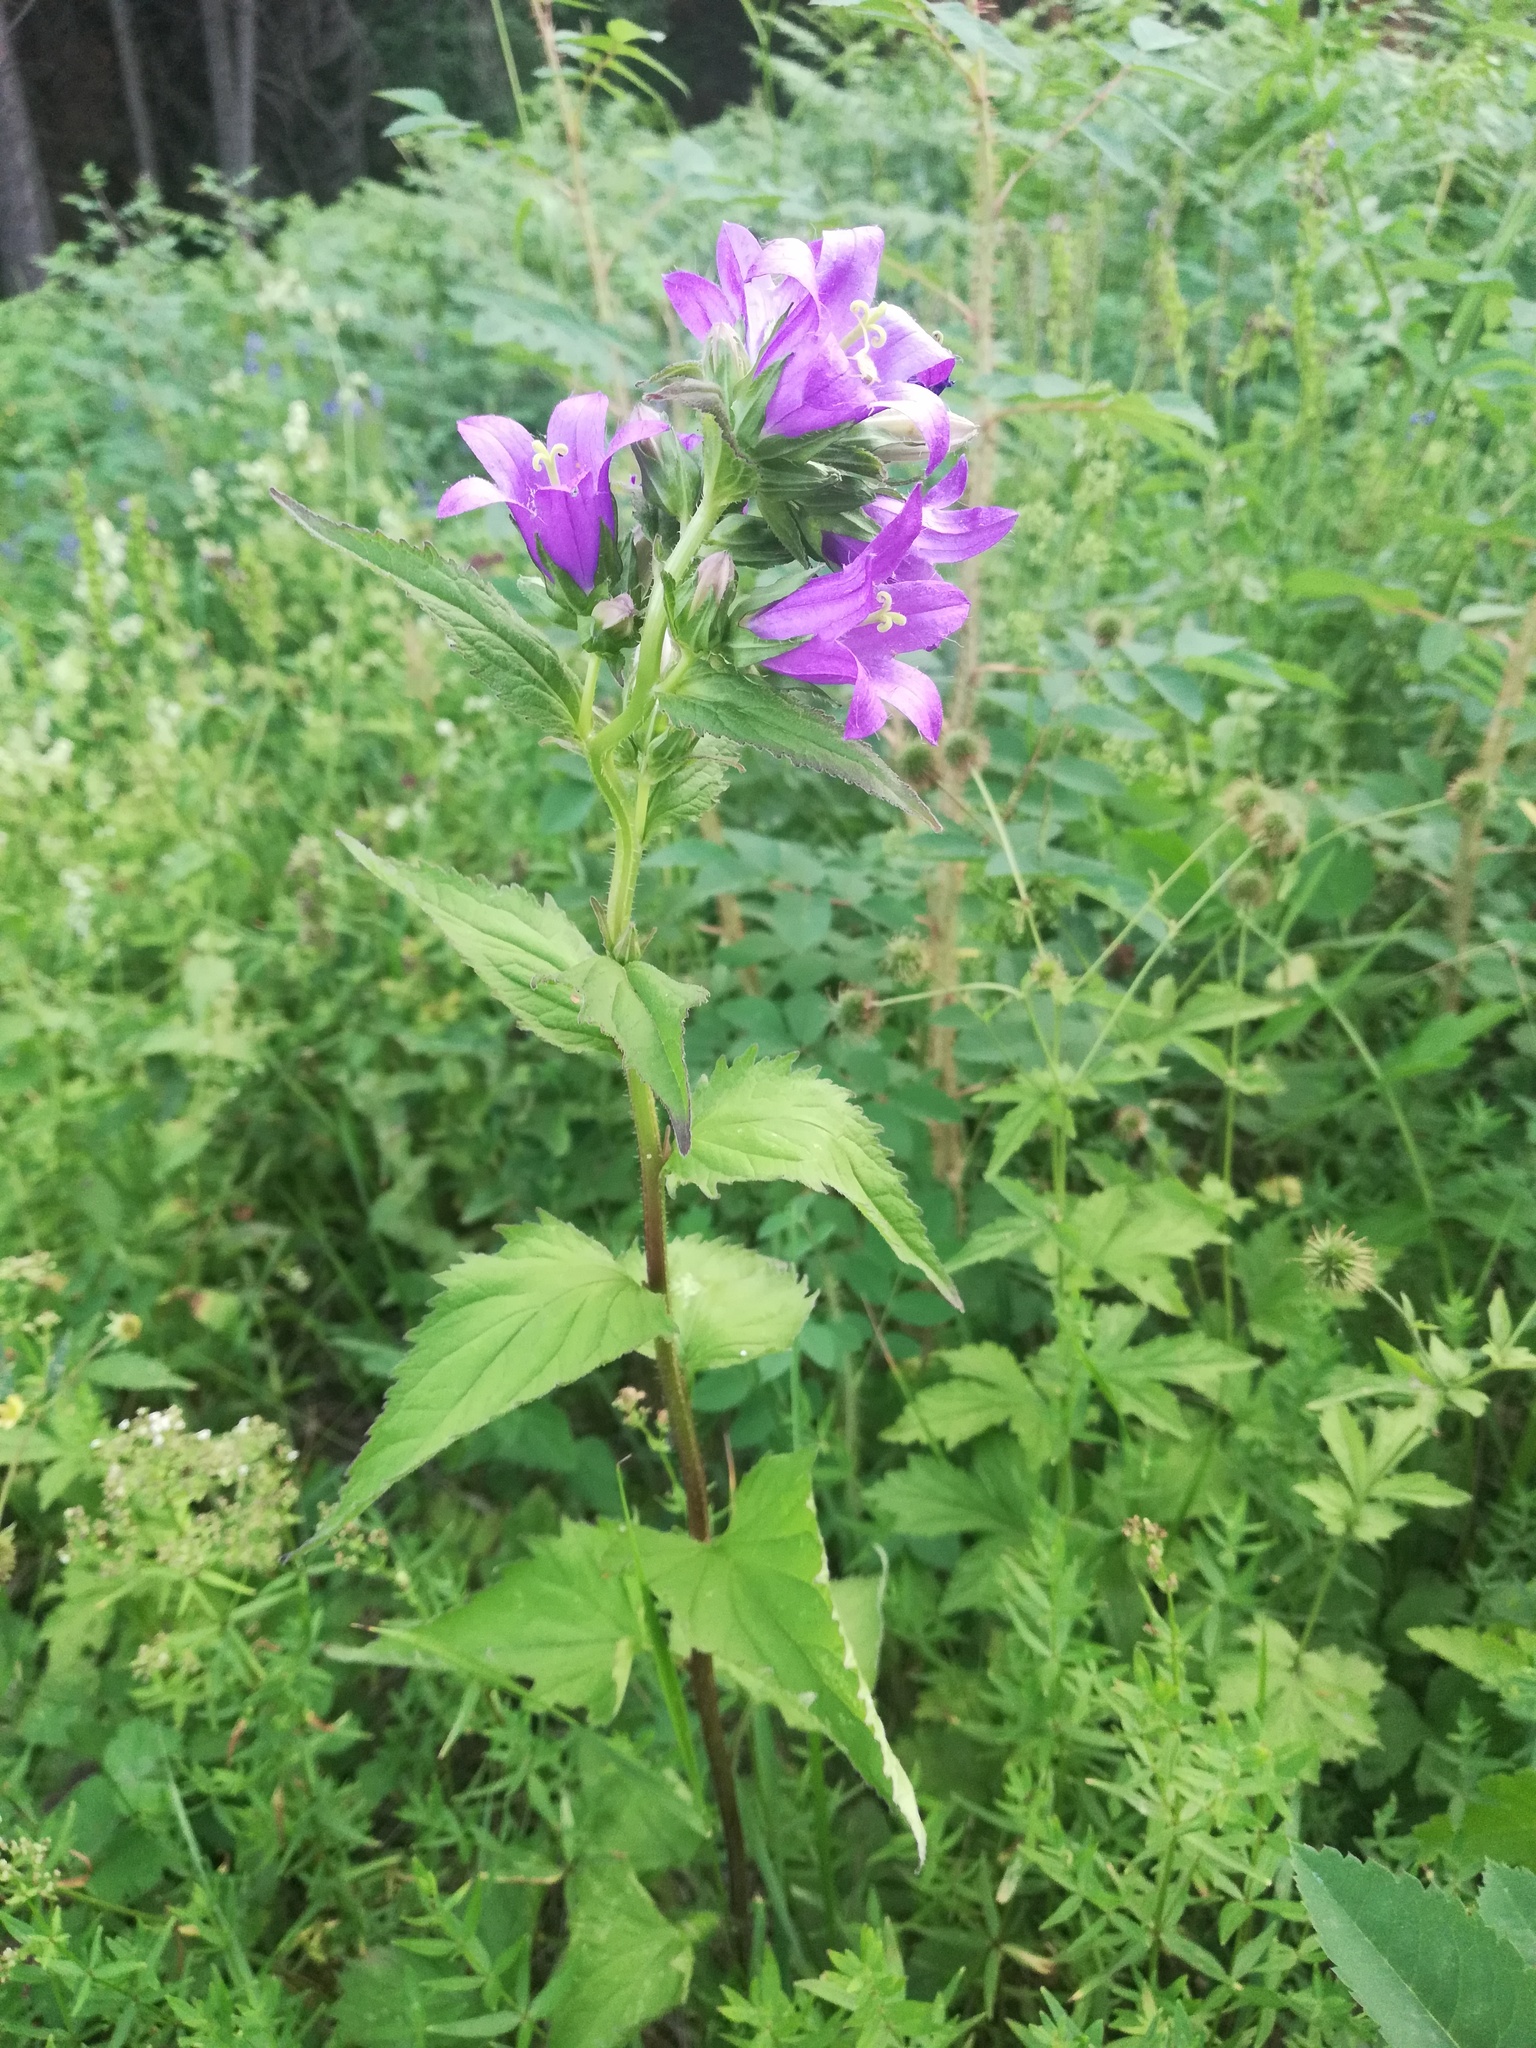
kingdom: Plantae
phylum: Tracheophyta
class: Magnoliopsida
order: Asterales
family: Campanulaceae
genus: Campanula
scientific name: Campanula trachelium
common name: Nettle-leaved bellflower
